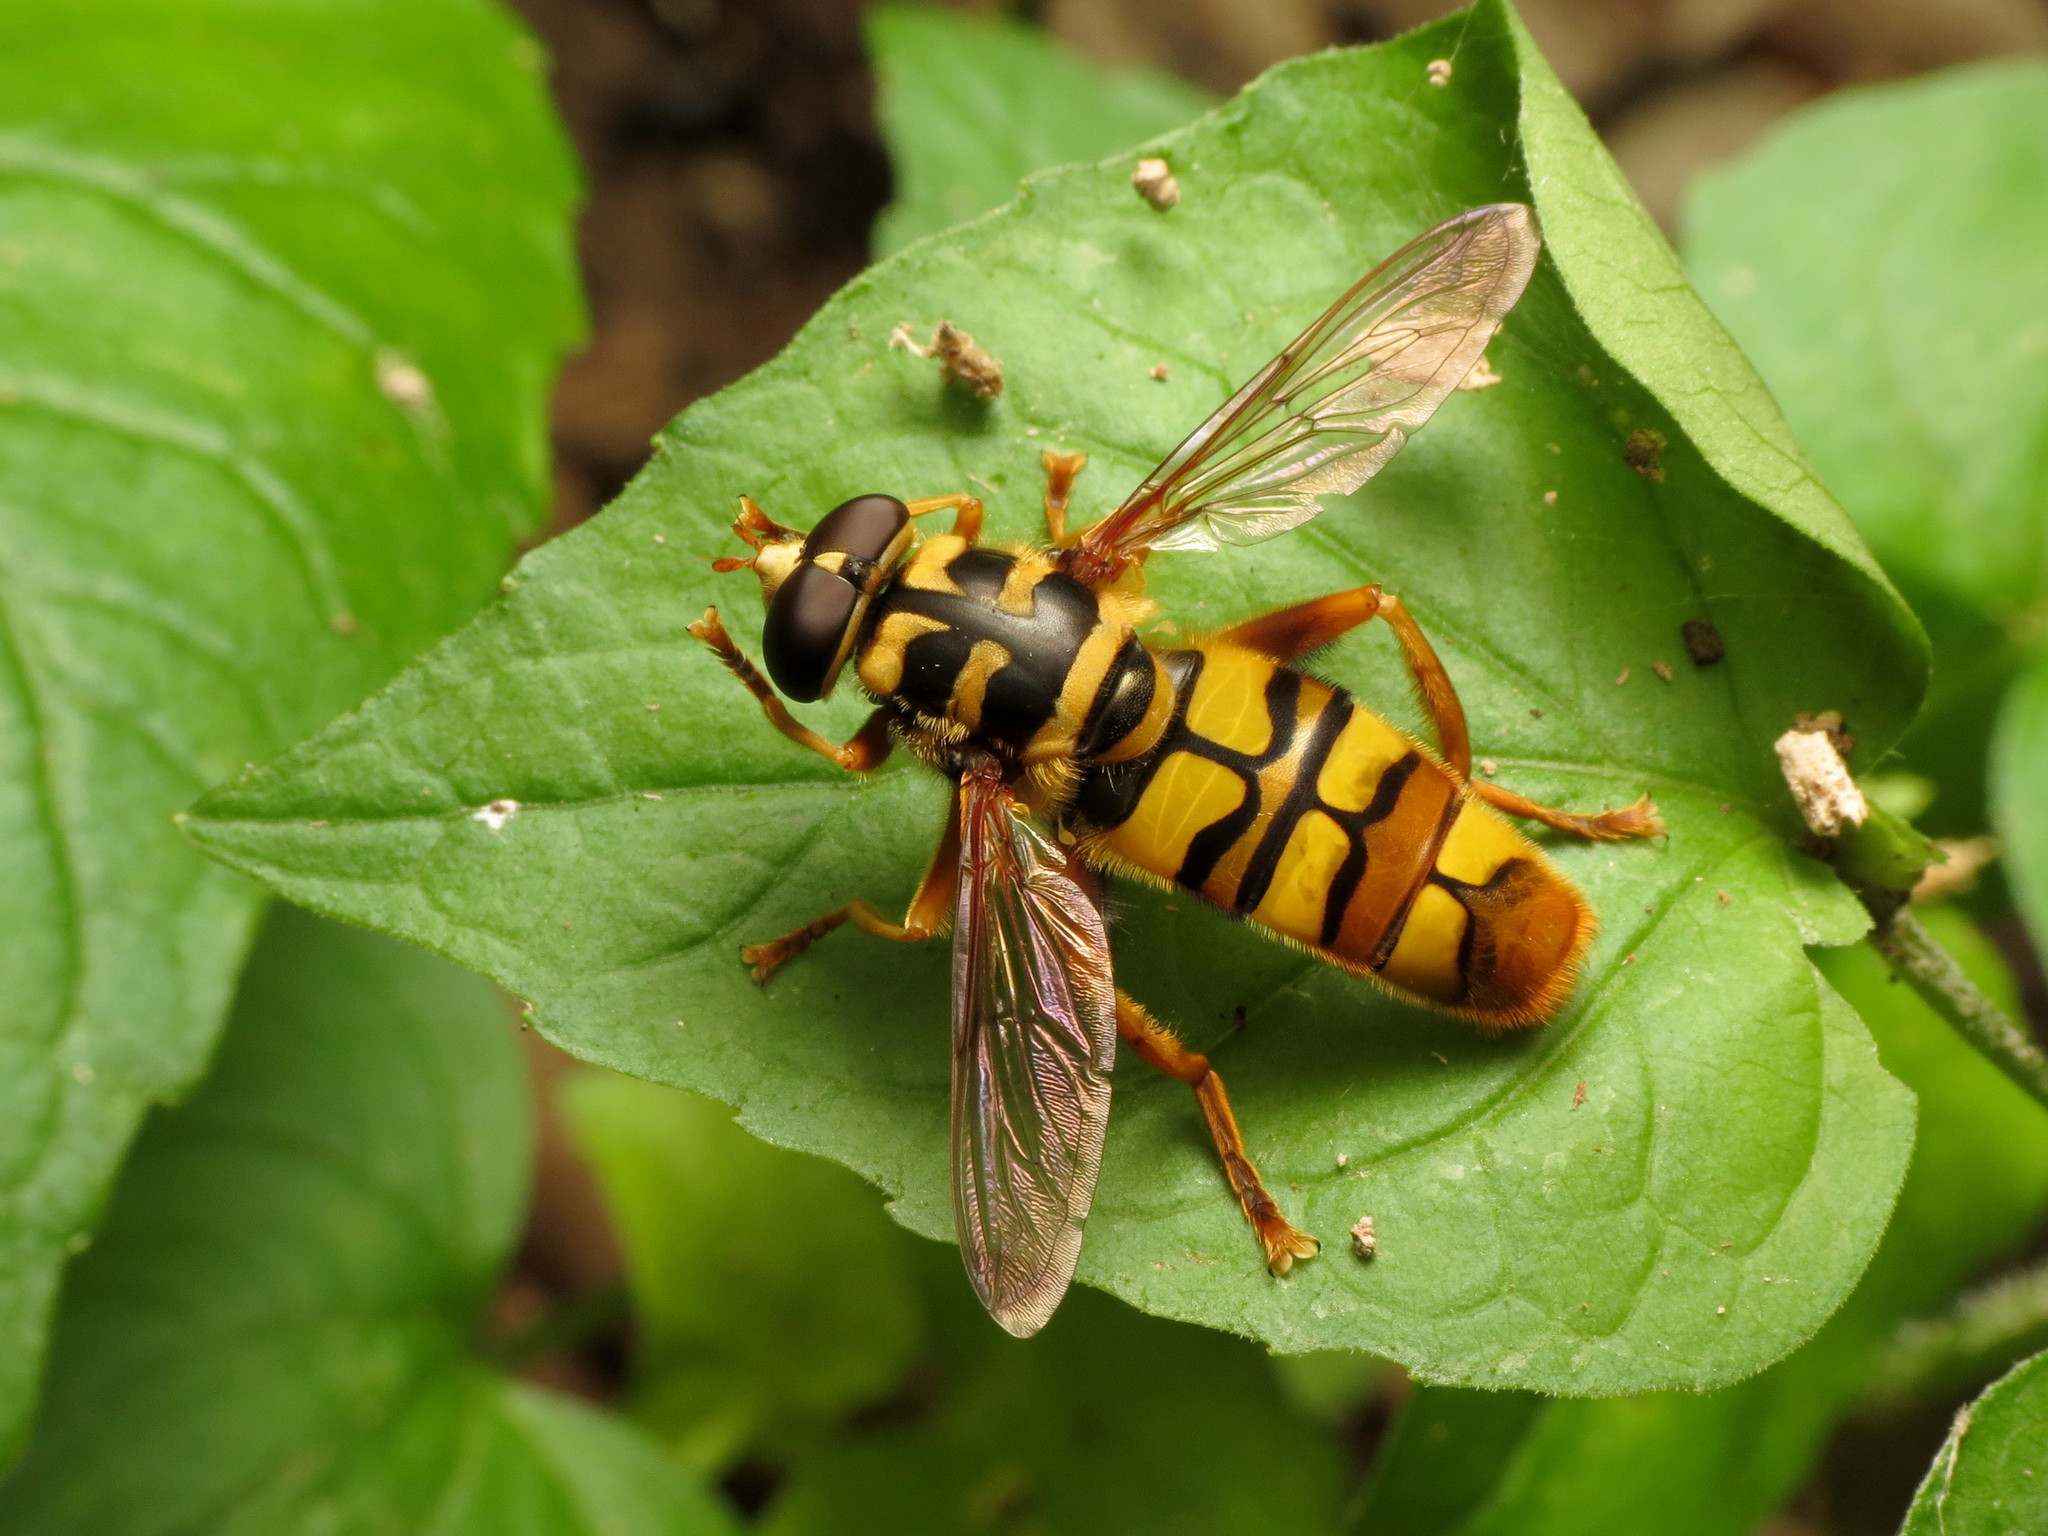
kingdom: Animalia
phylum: Arthropoda
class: Insecta
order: Diptera
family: Syrphidae
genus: Milesia
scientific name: Milesia virginiensis
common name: Virginia giant
